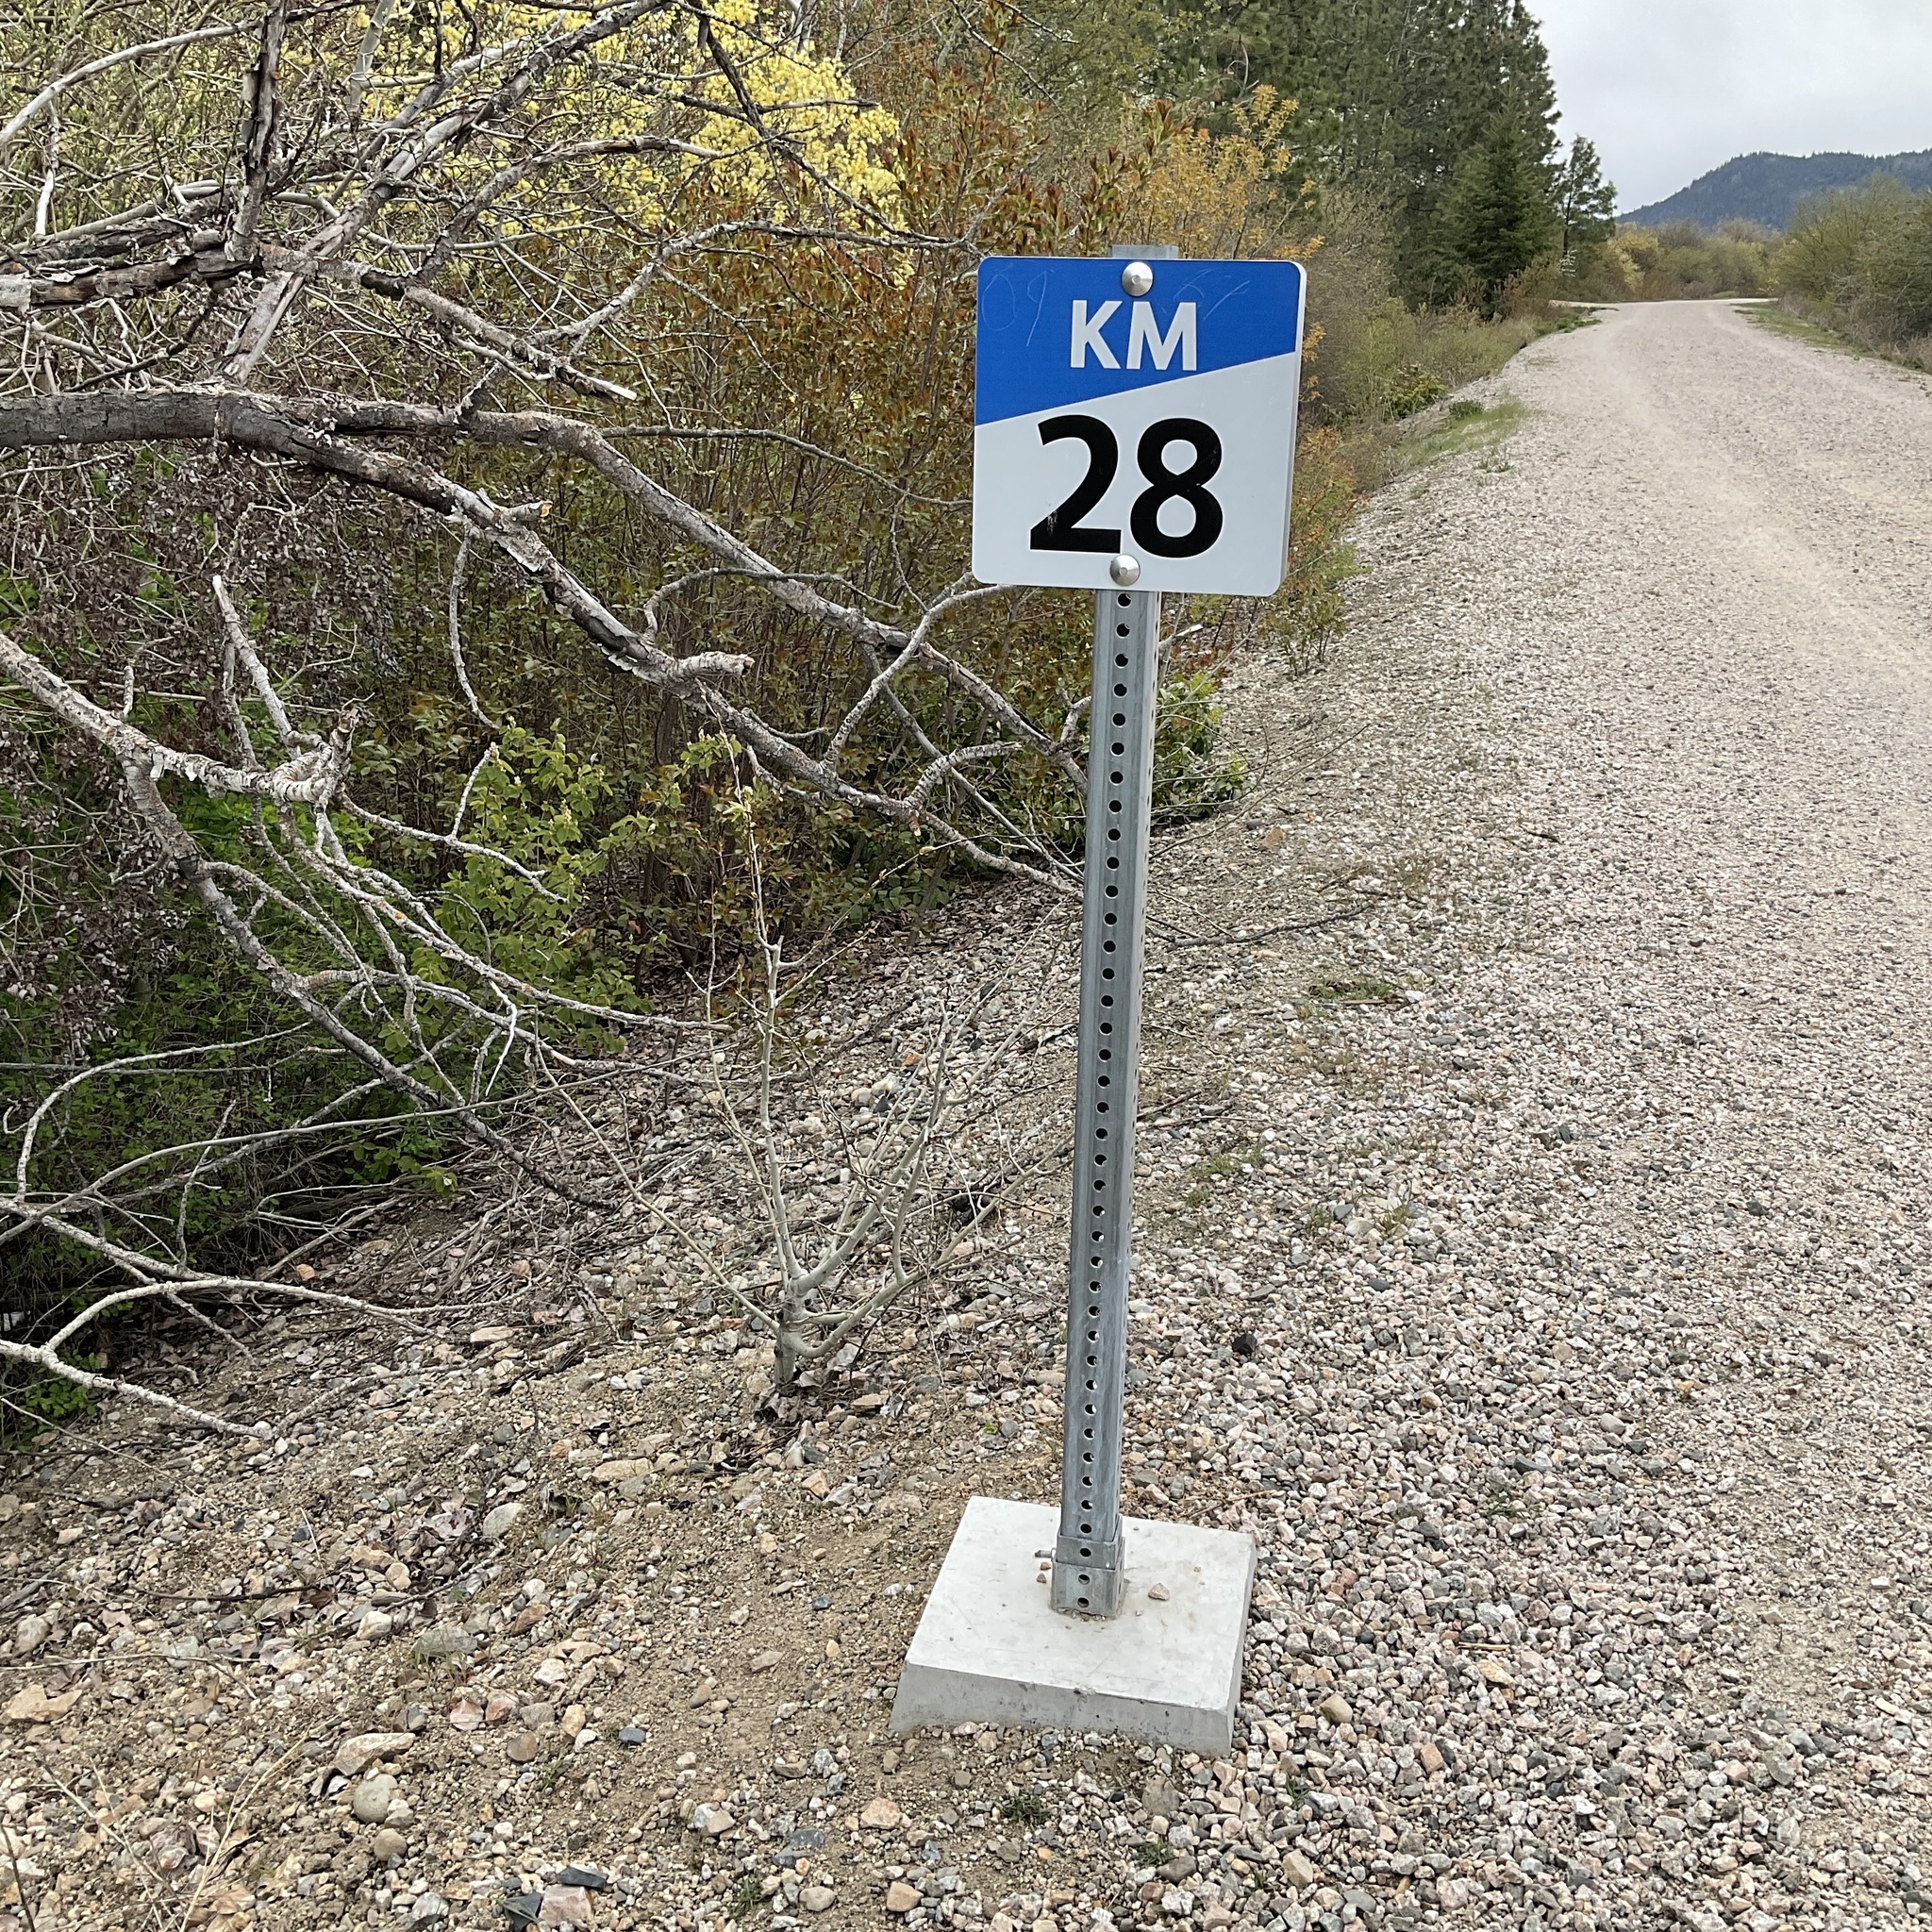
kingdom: Plantae
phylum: Tracheophyta
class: Magnoliopsida
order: Malpighiales
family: Salicaceae
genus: Populus
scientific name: Populus trichocarpa
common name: Black cottonwood
